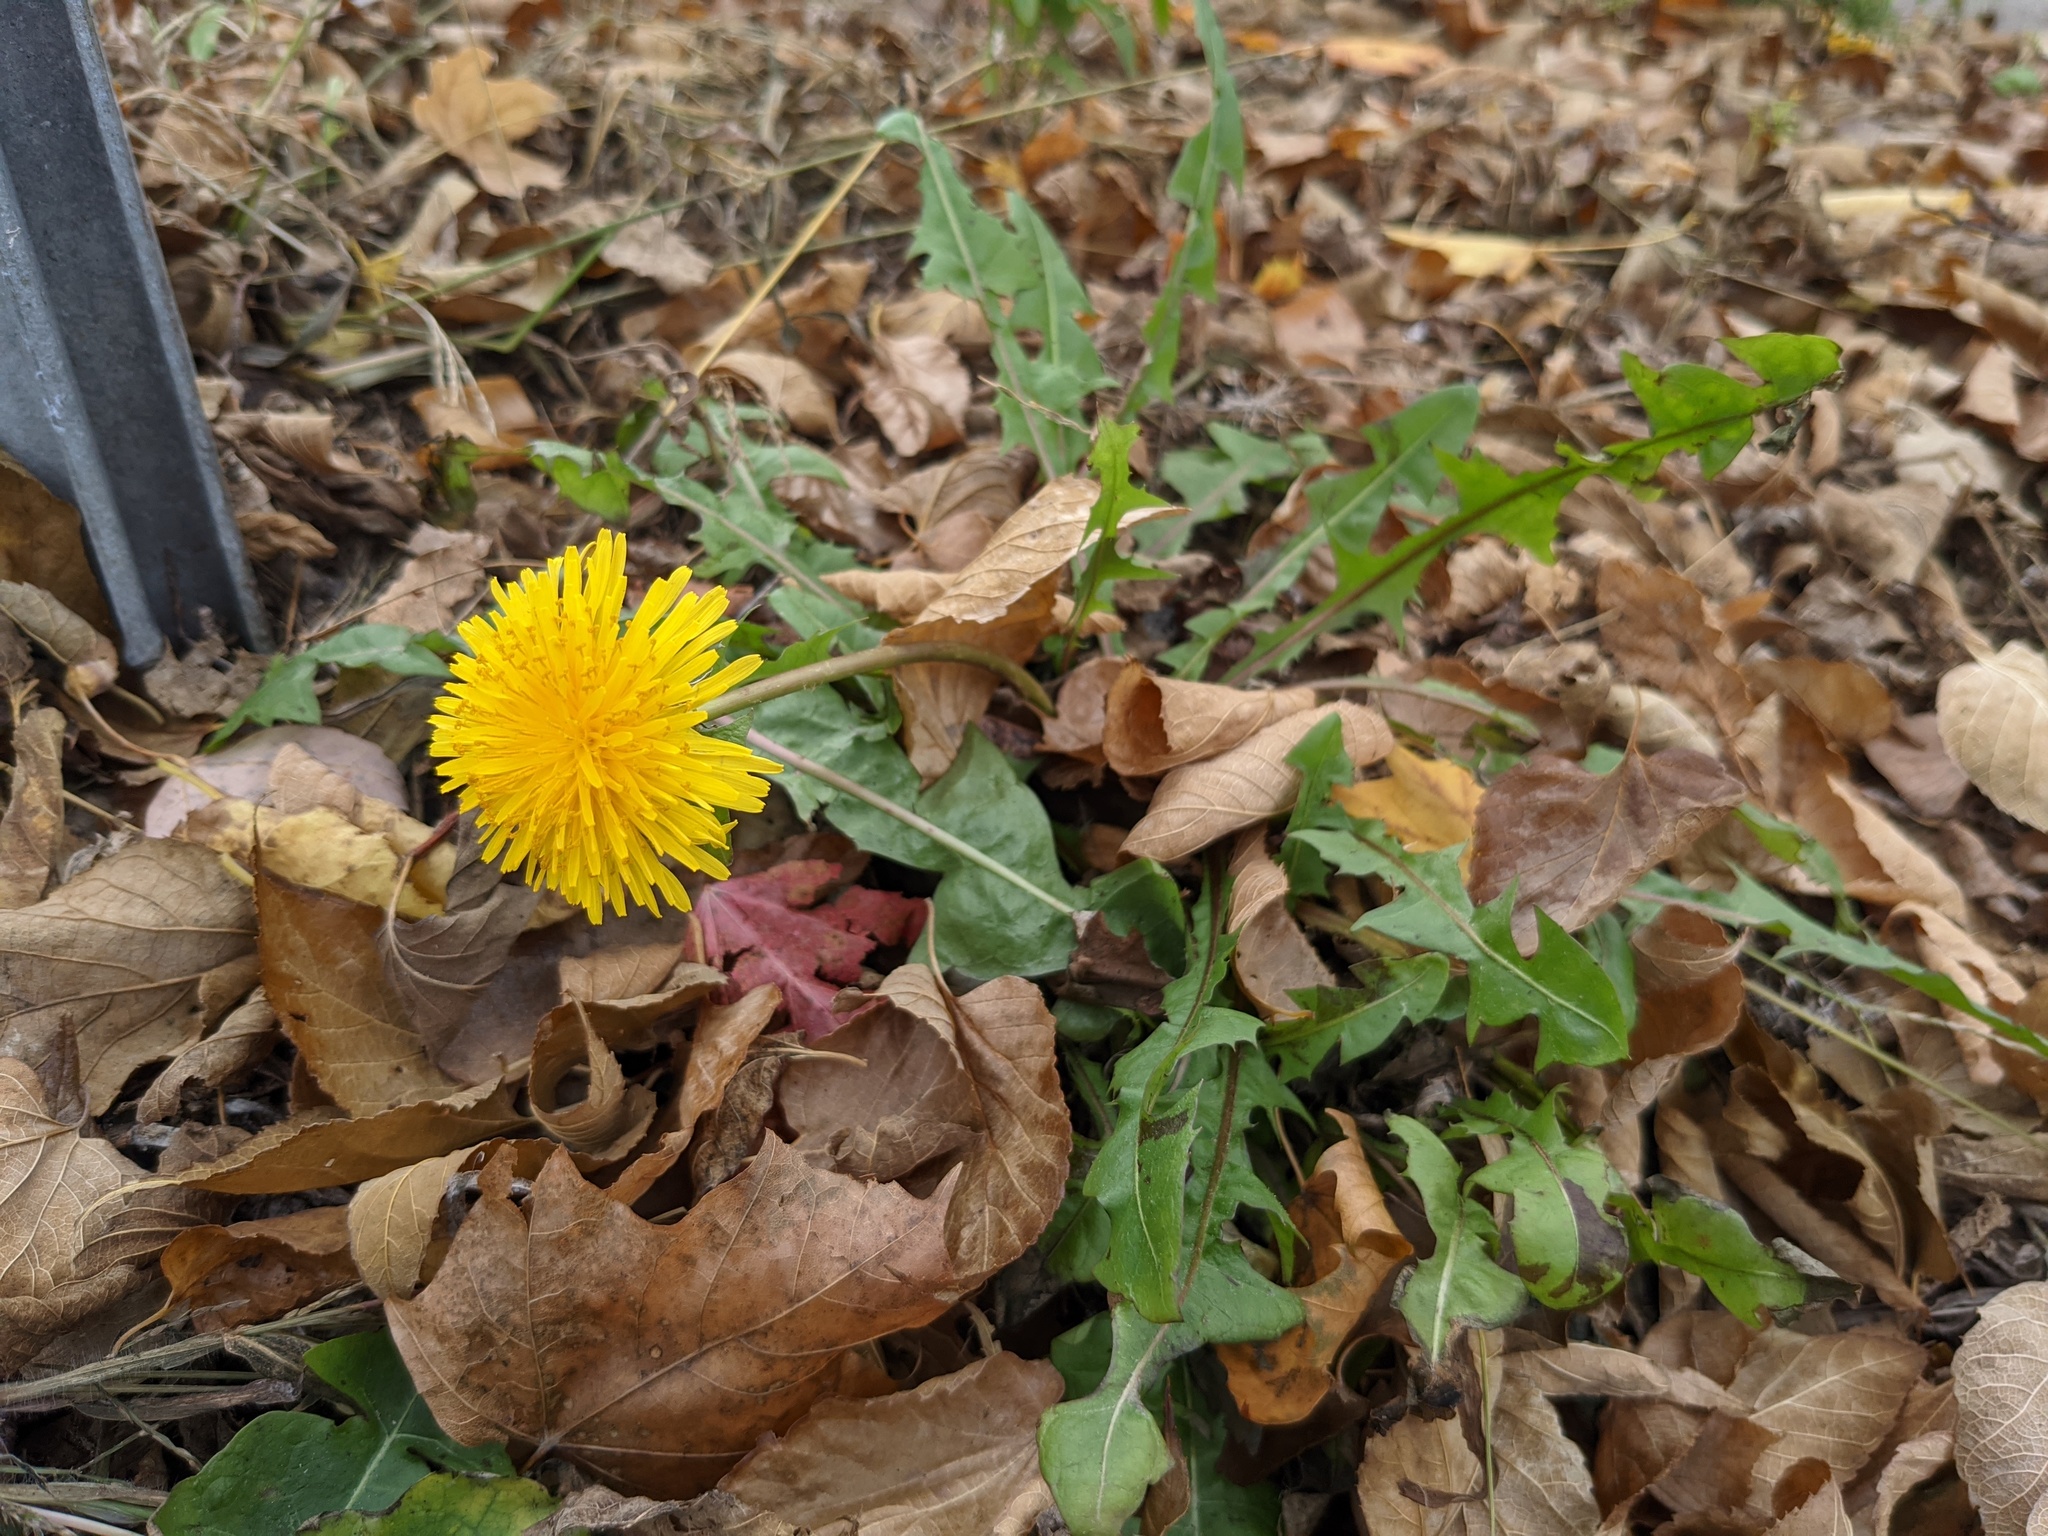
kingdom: Plantae
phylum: Tracheophyta
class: Magnoliopsida
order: Asterales
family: Asteraceae
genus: Taraxacum
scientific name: Taraxacum officinale
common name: Common dandelion
